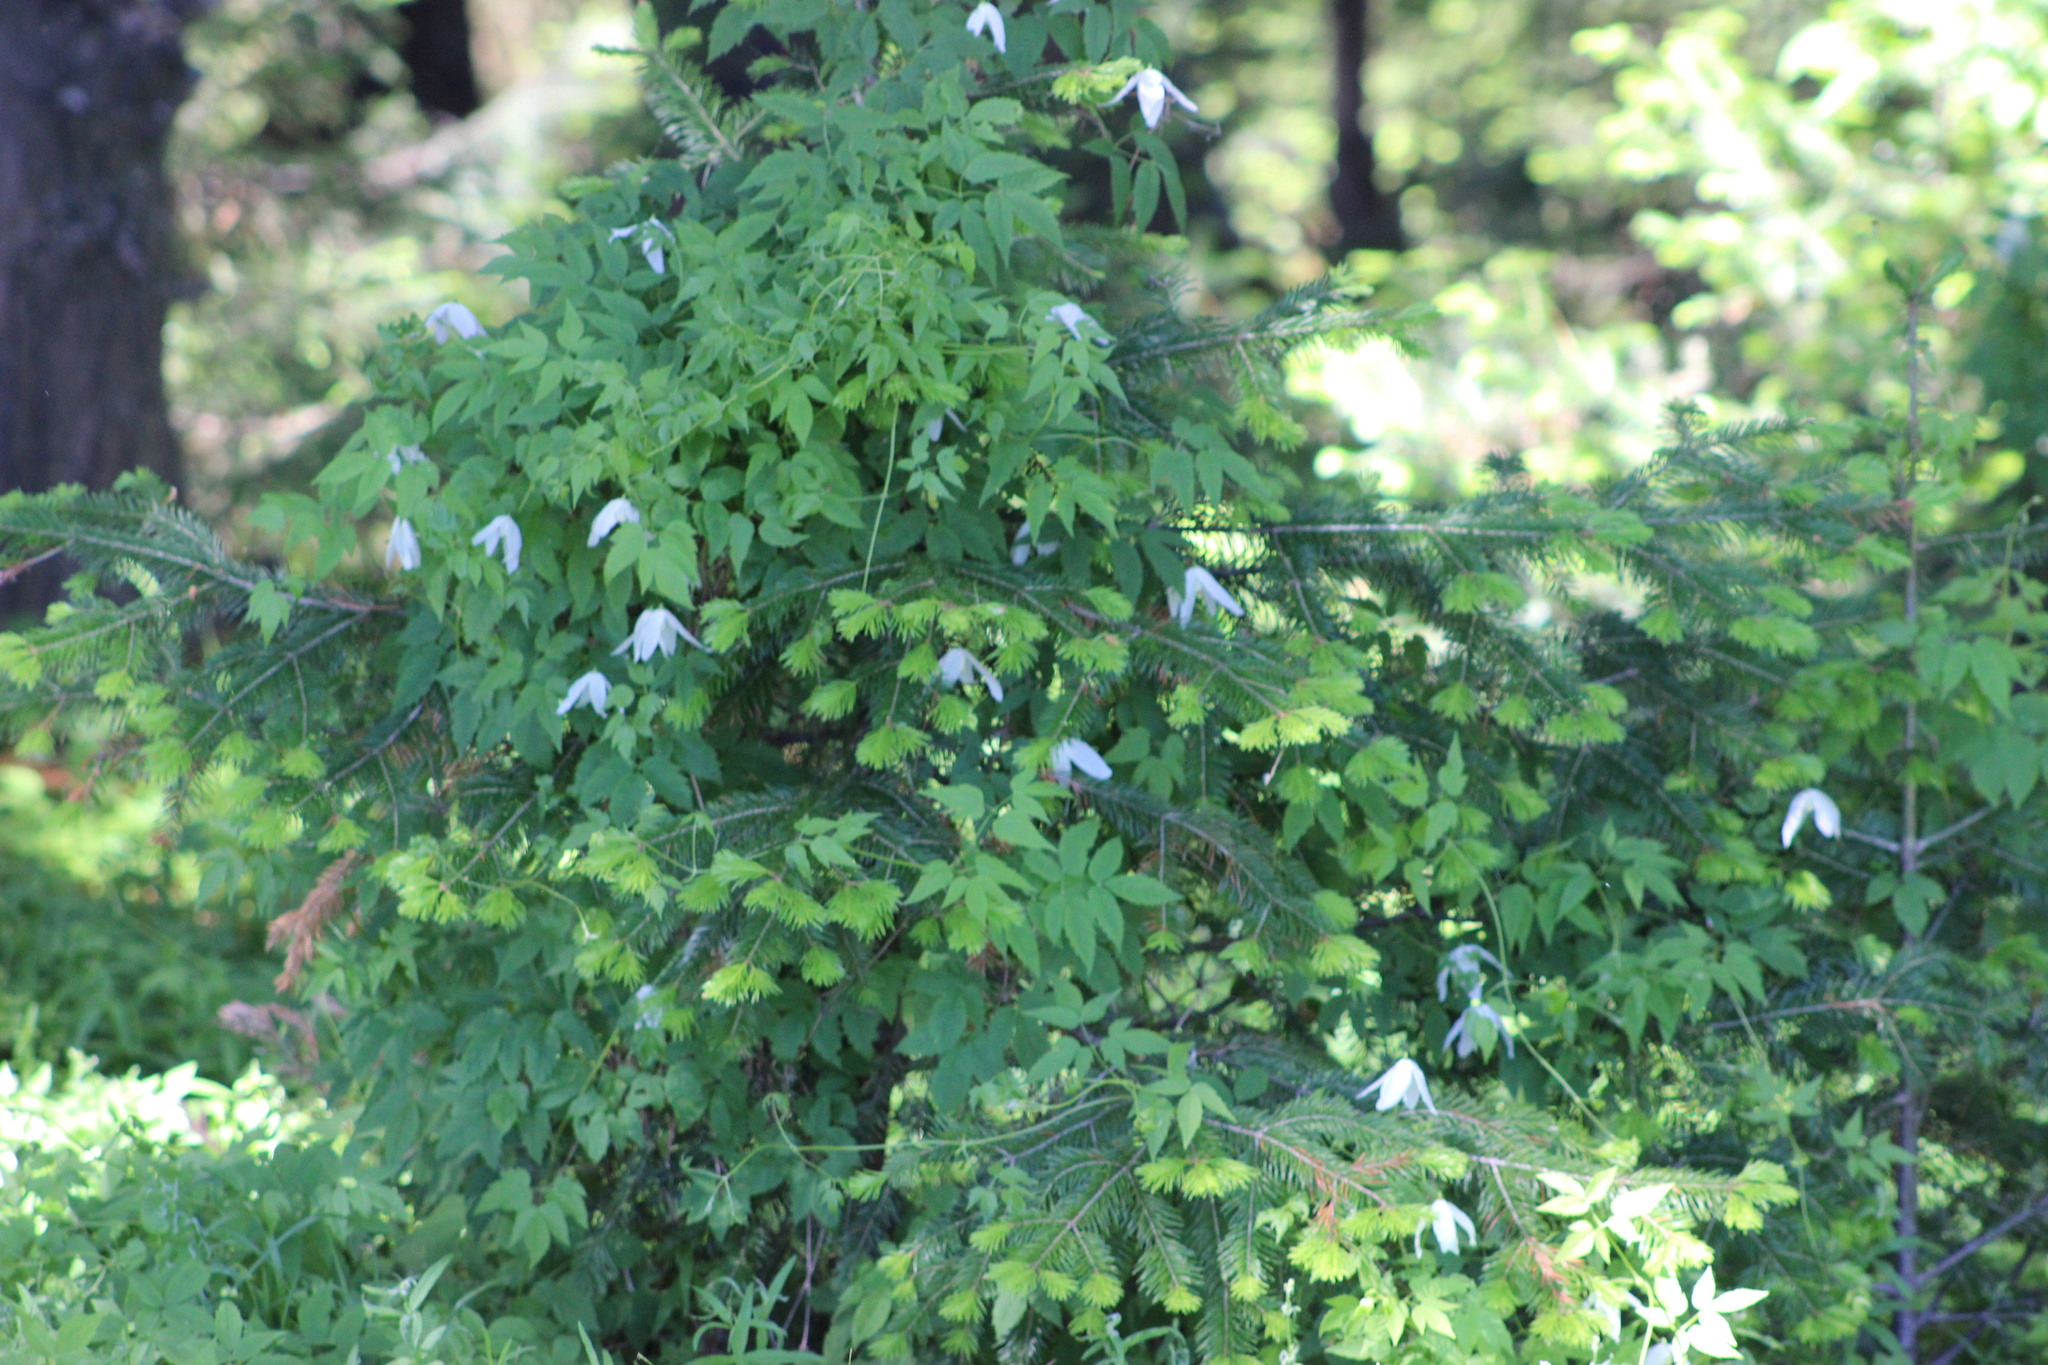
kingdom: Plantae
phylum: Tracheophyta
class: Magnoliopsida
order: Ranunculales
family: Ranunculaceae
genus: Clematis
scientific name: Clematis sibirica
